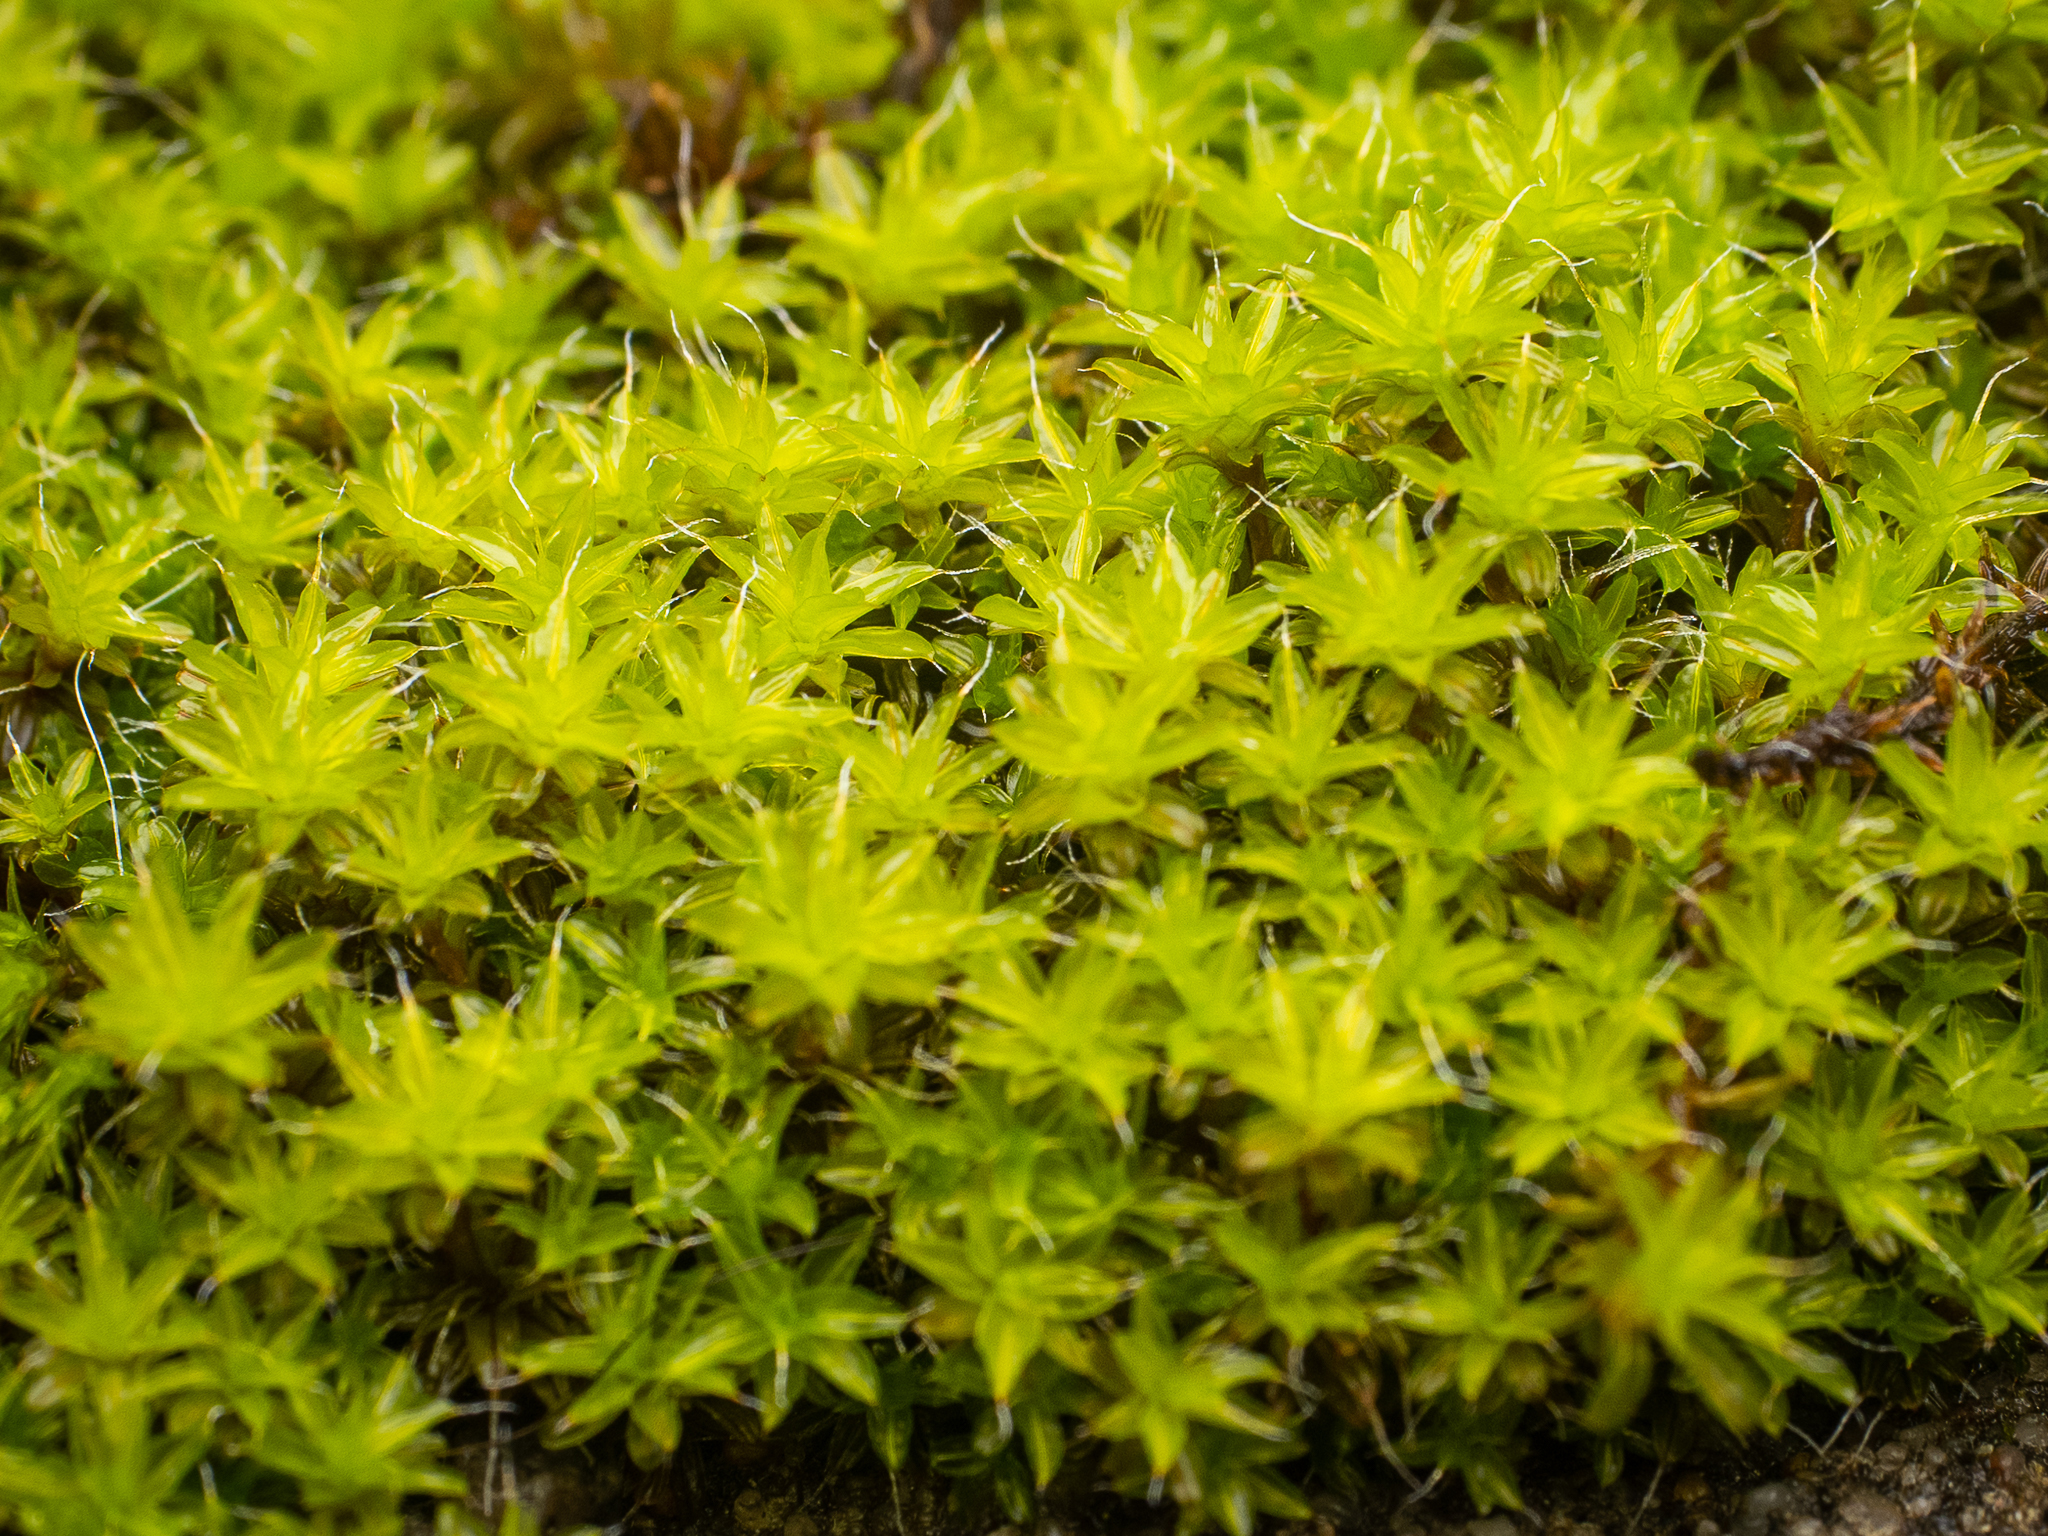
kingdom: Plantae
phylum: Bryophyta
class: Bryopsida
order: Pottiales
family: Pottiaceae
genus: Syntrichia
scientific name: Syntrichia ruralis
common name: Sidewalk screw moss
